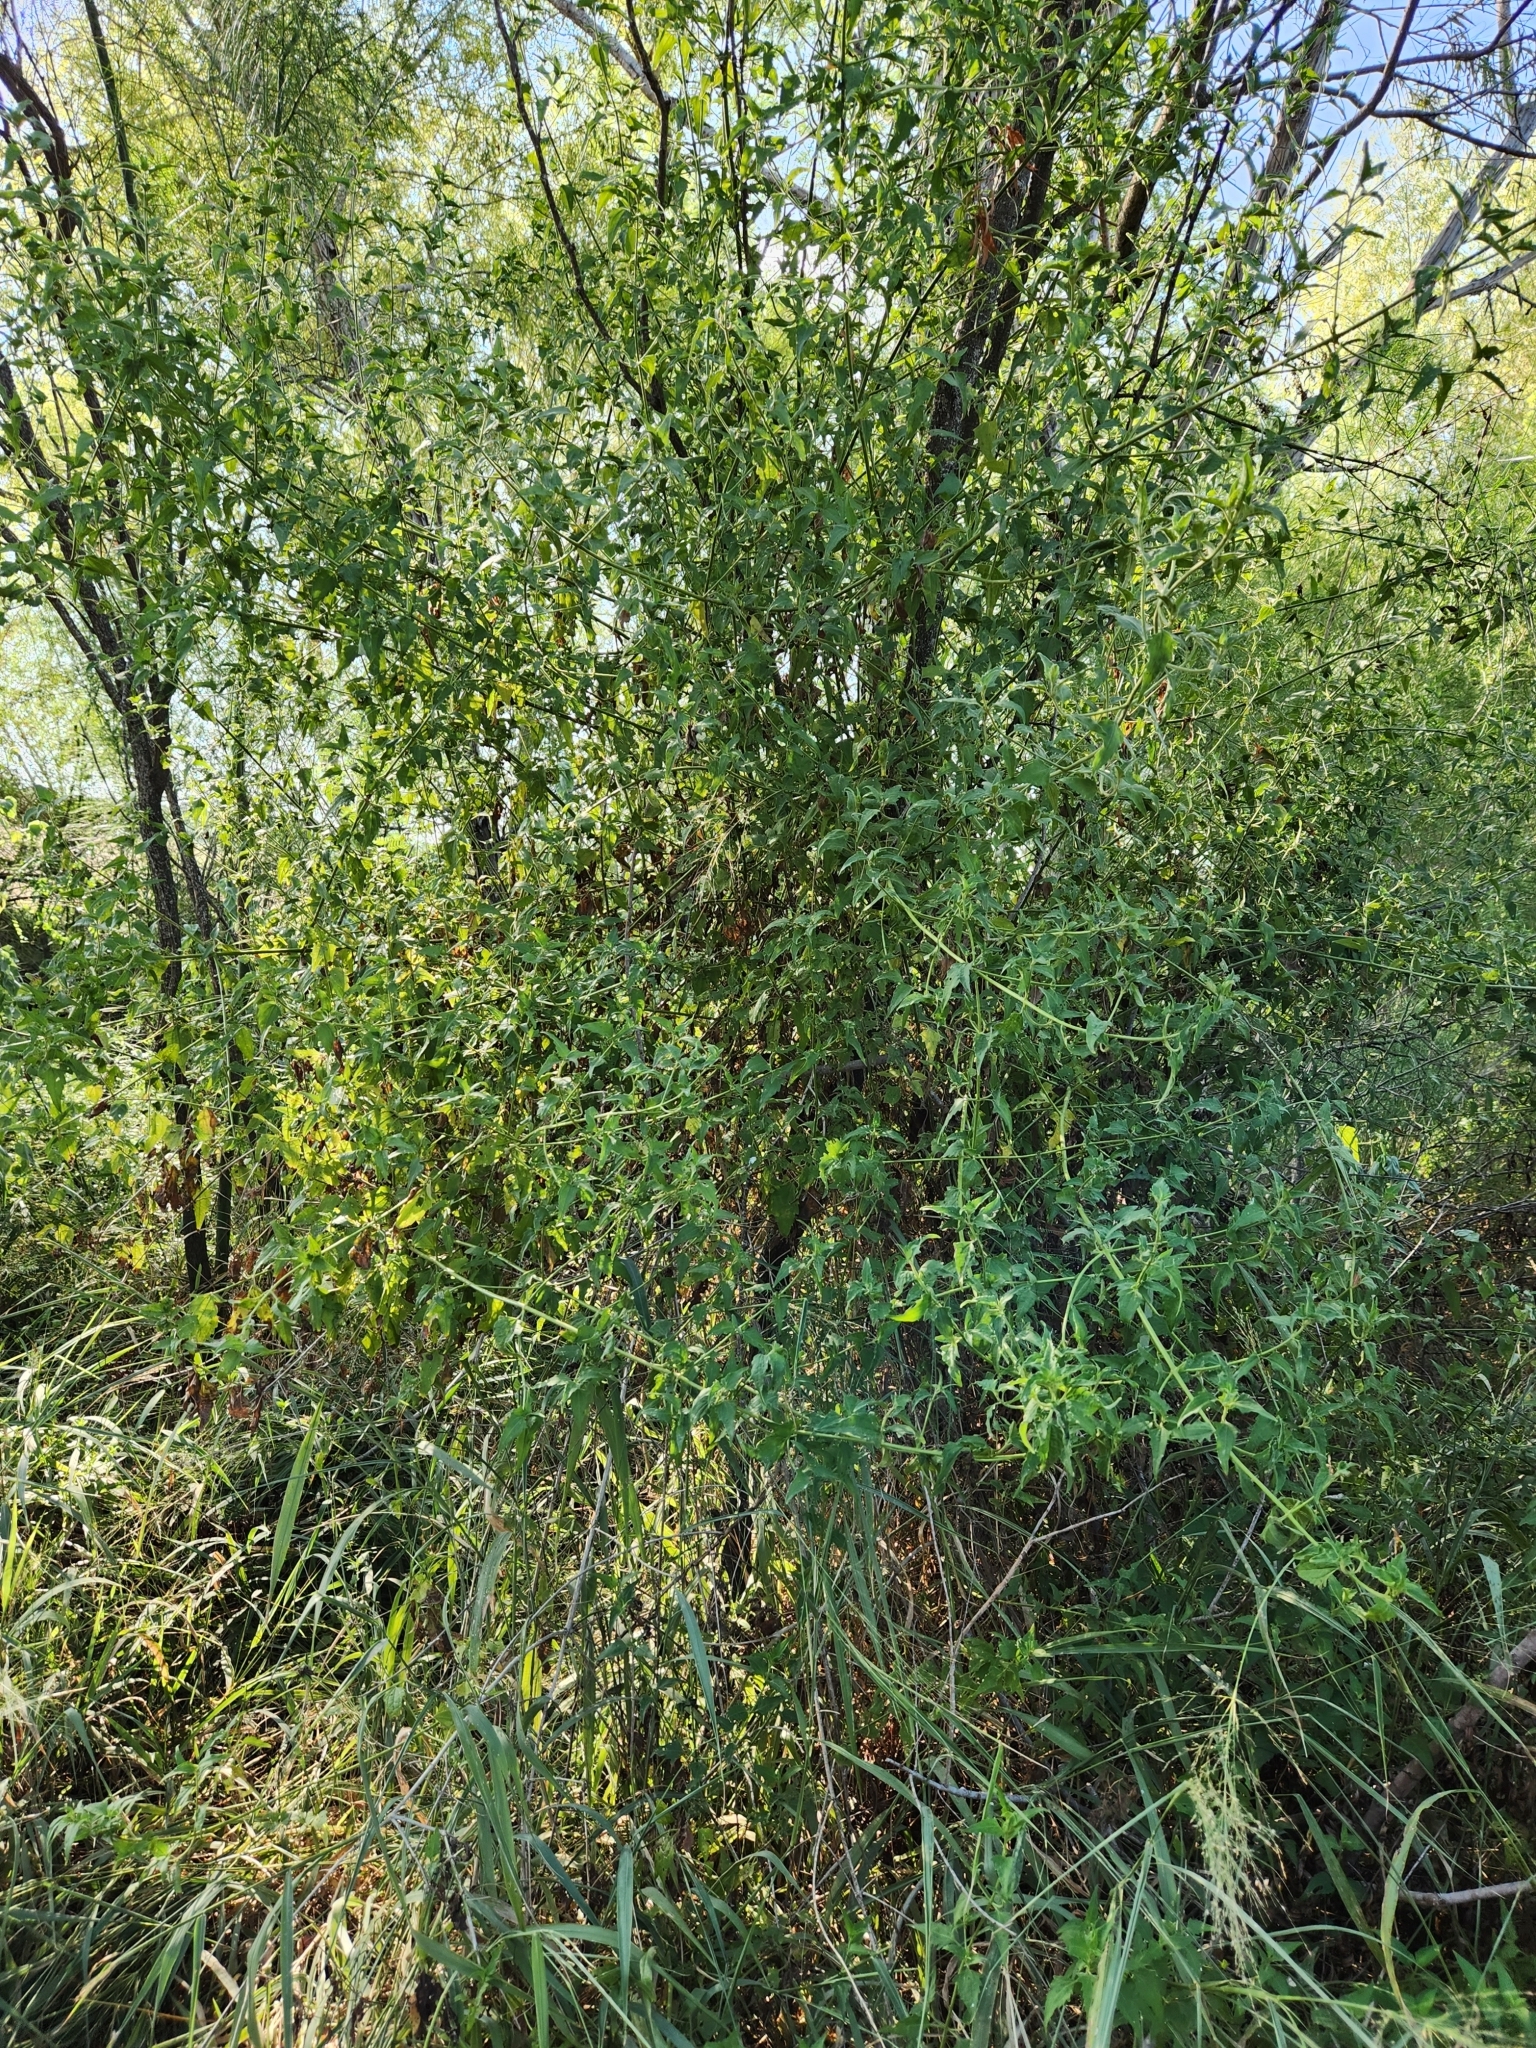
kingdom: Plantae
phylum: Tracheophyta
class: Magnoliopsida
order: Asterales
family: Asteraceae
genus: Simsia
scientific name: Simsia calva
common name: Awnless bush-sunflower
